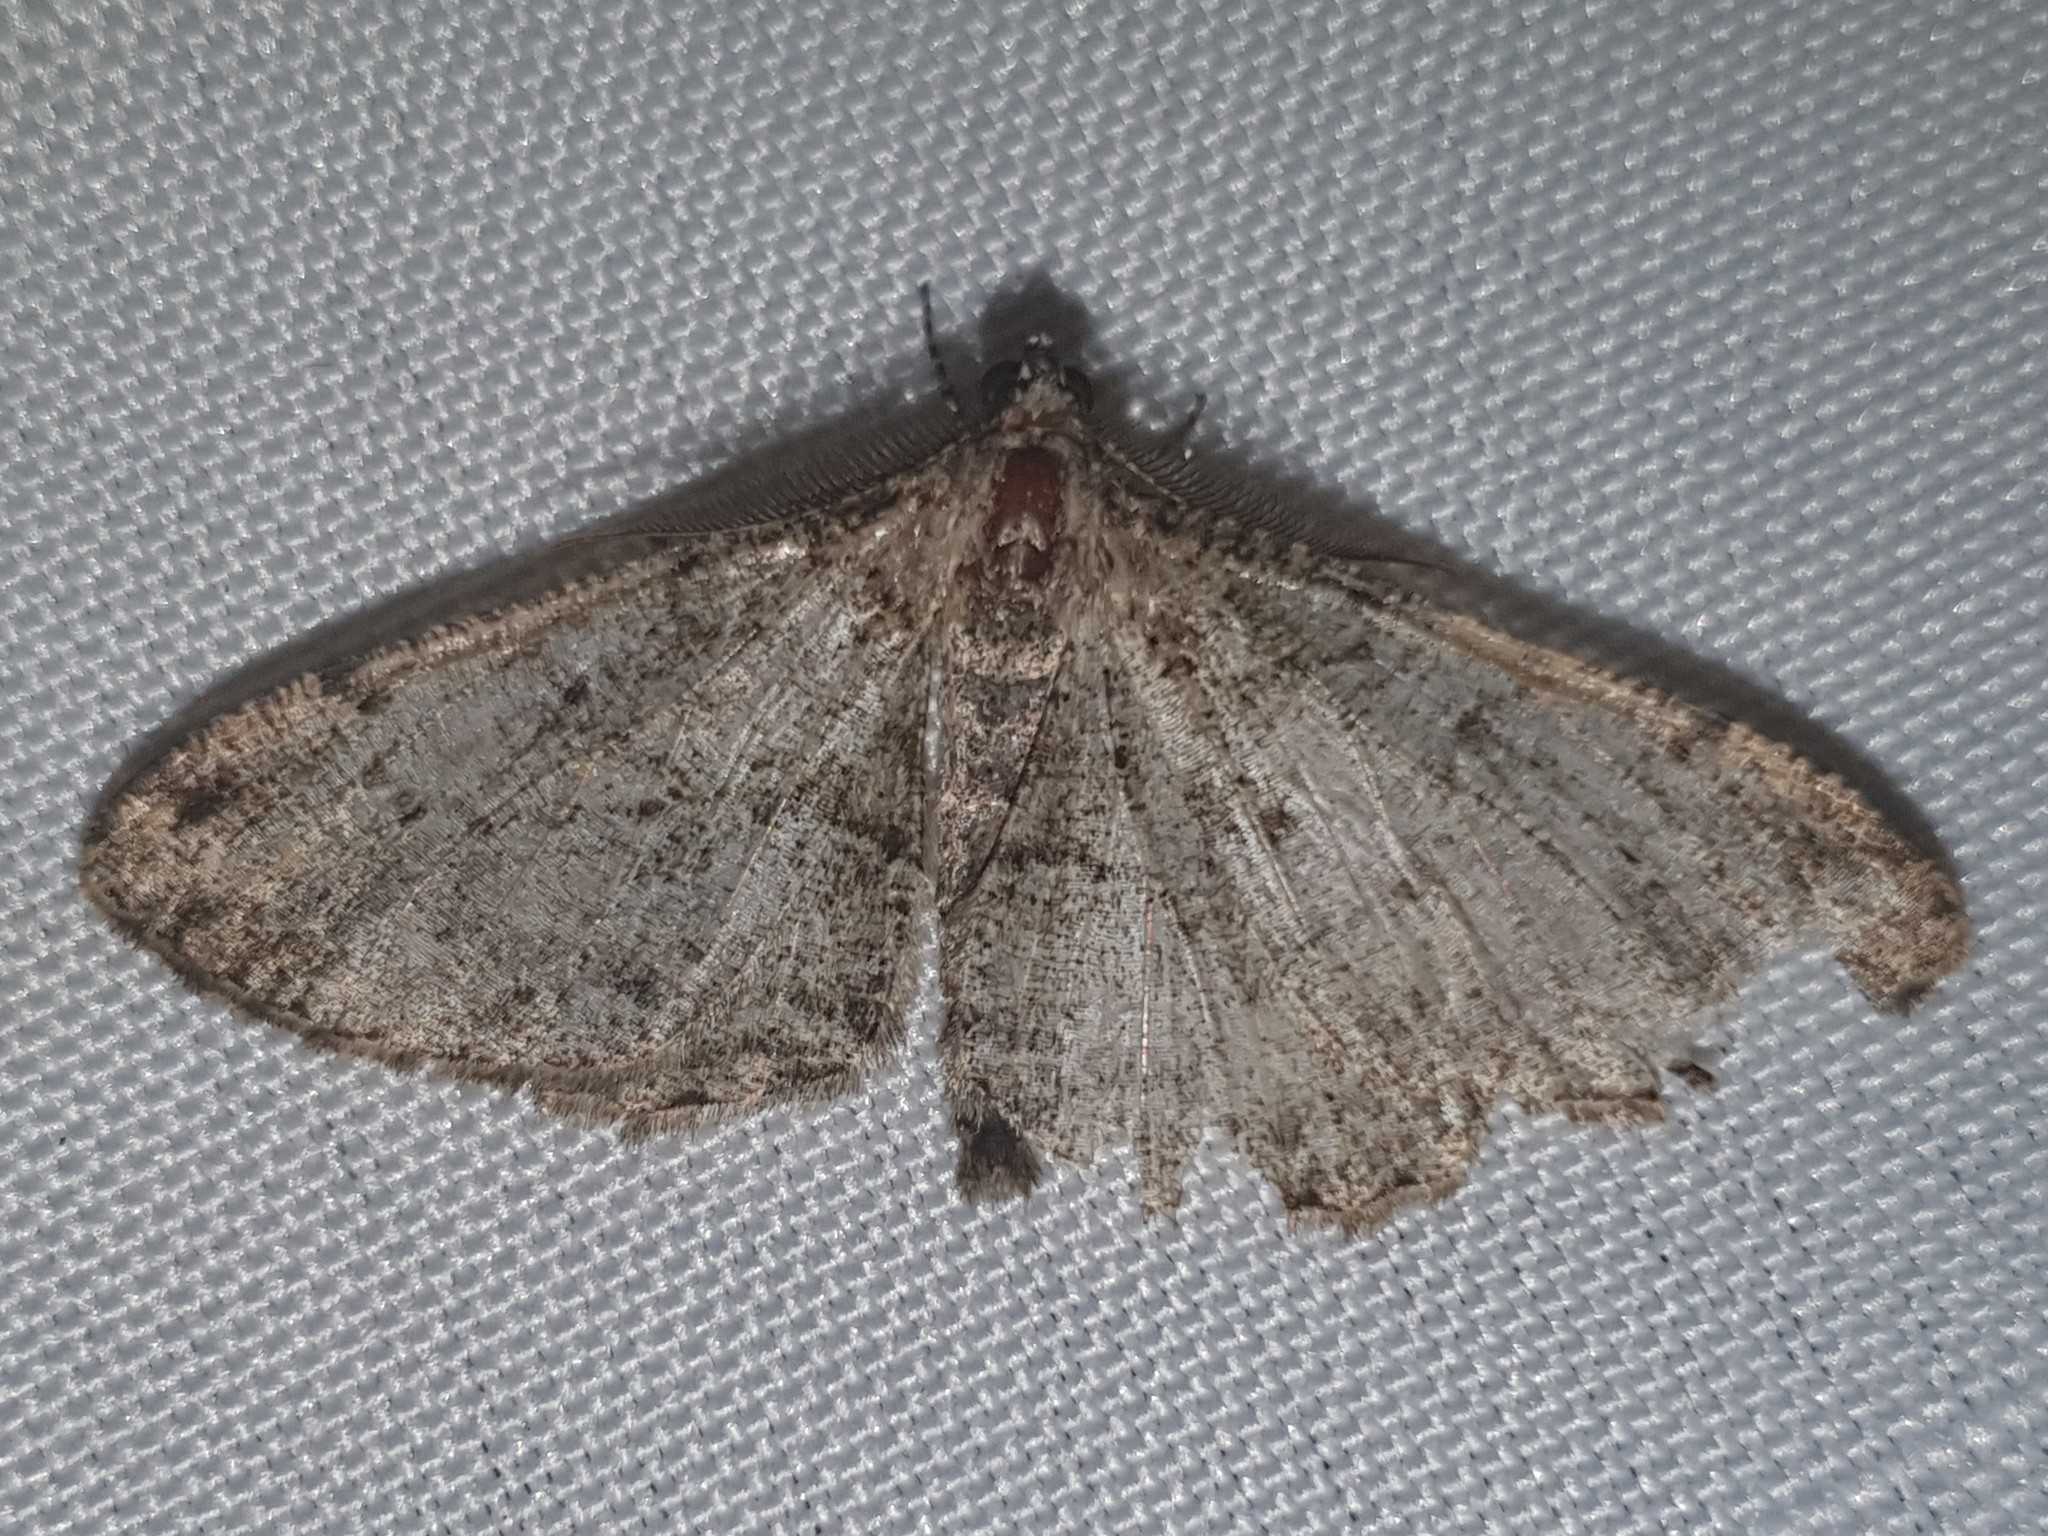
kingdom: Animalia
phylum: Arthropoda
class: Insecta
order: Lepidoptera
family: Geometridae
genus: Peribatodes
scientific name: Peribatodes rhomboidaria
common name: Willow beauty
